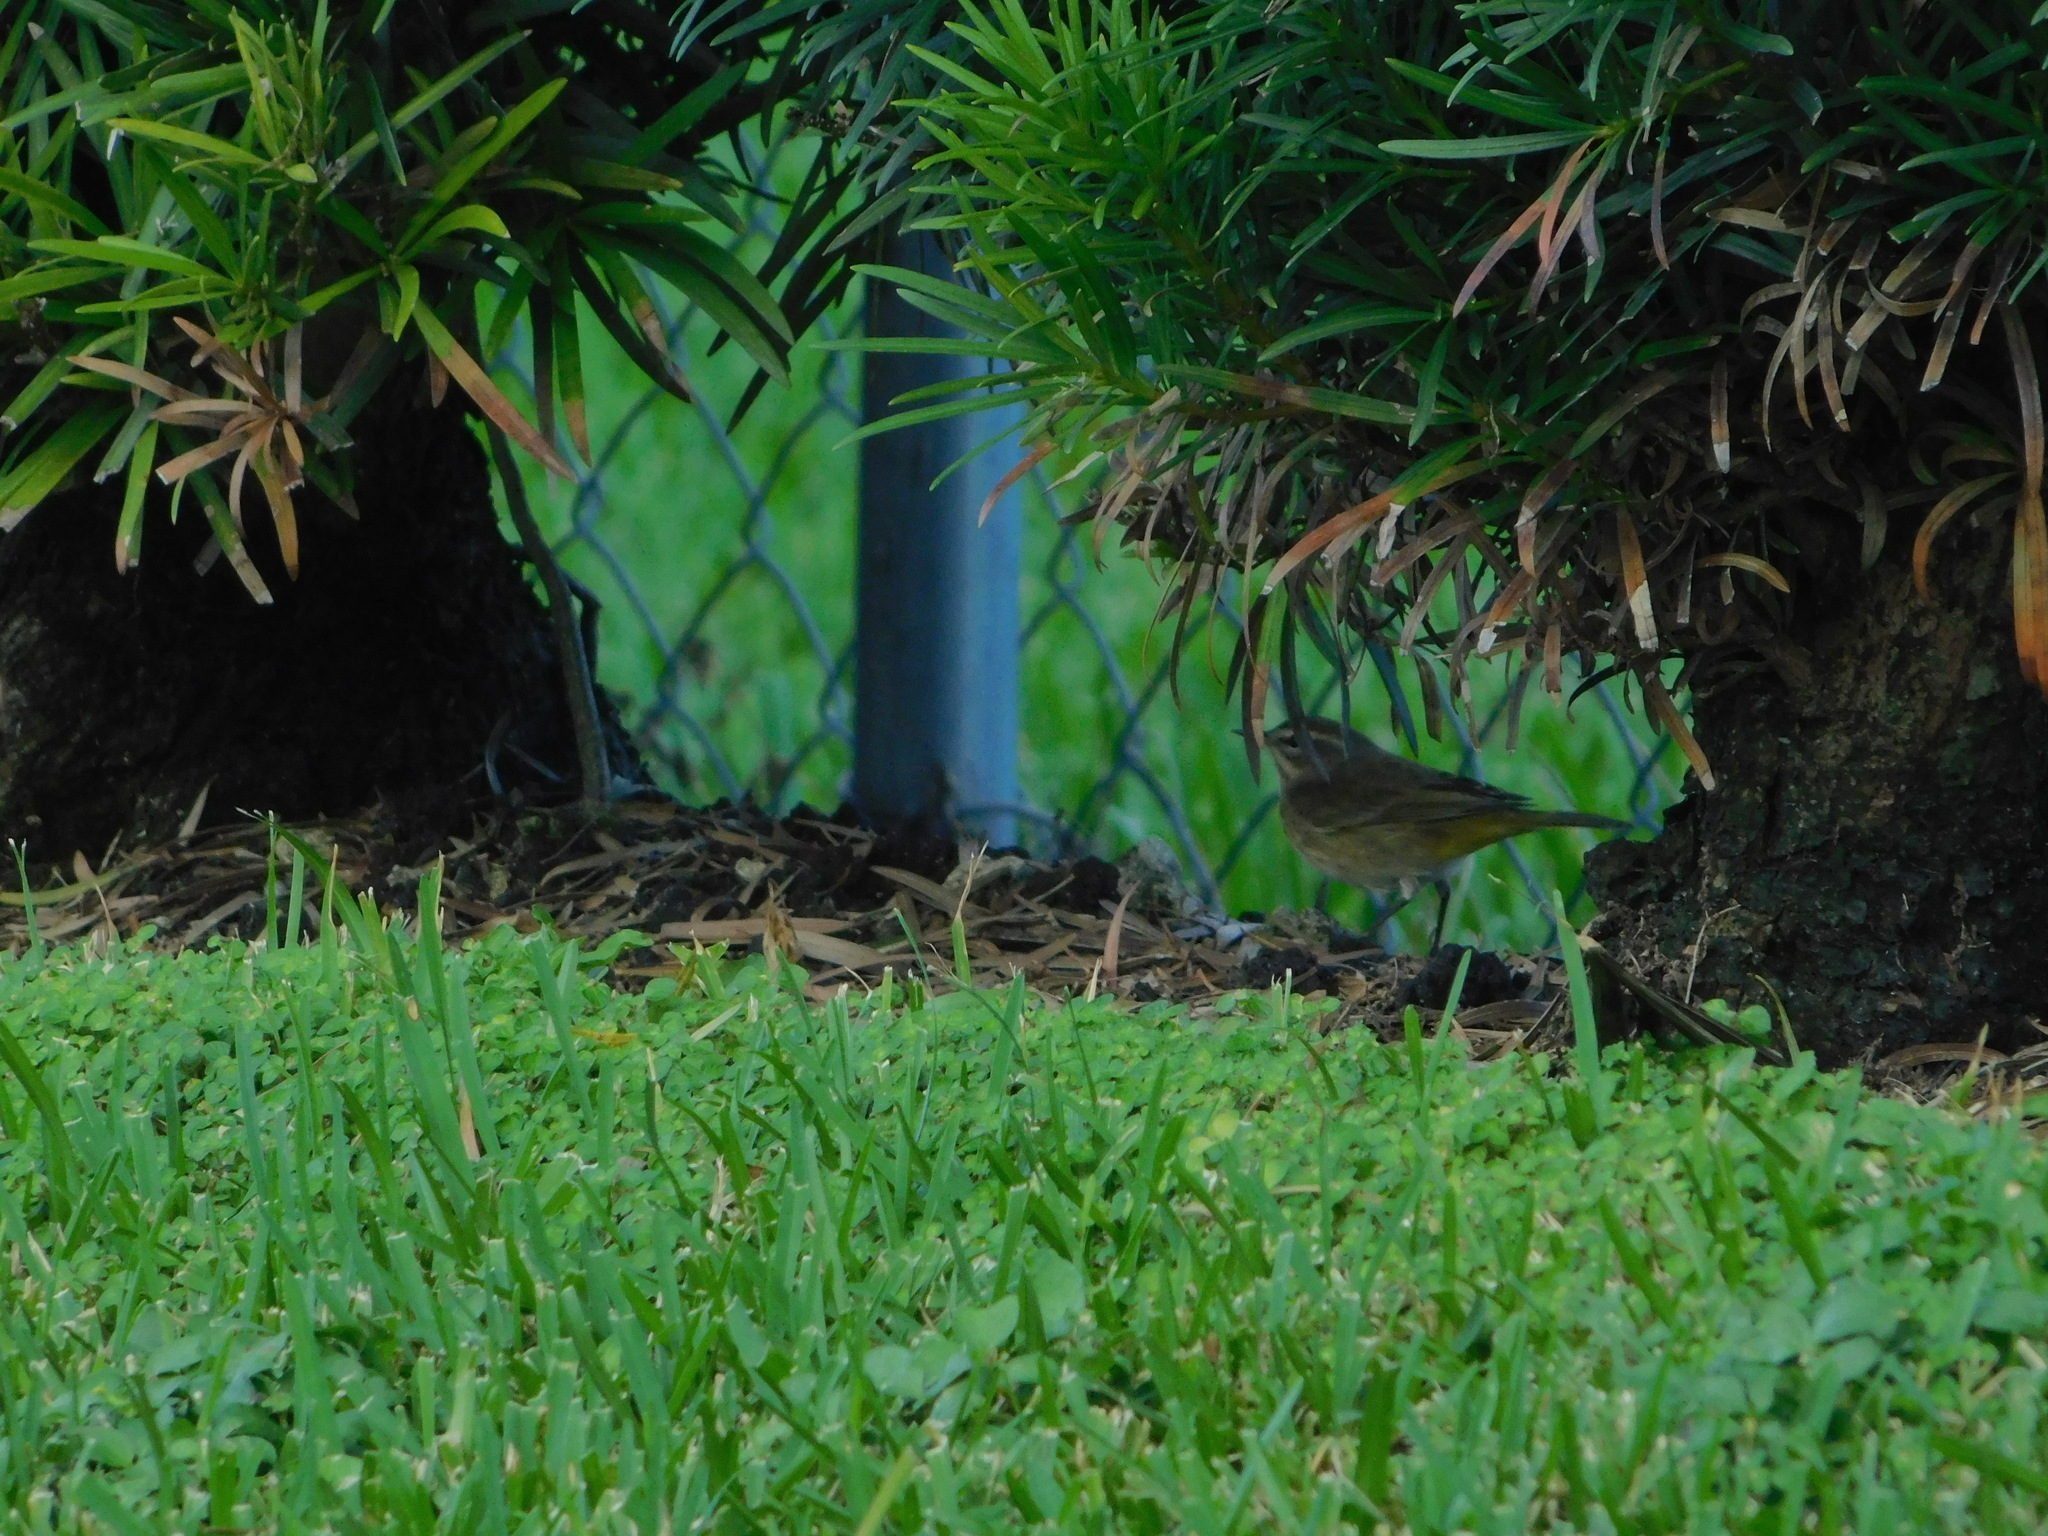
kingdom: Animalia
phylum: Chordata
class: Aves
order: Passeriformes
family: Parulidae
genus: Setophaga
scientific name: Setophaga palmarum
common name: Palm warbler
